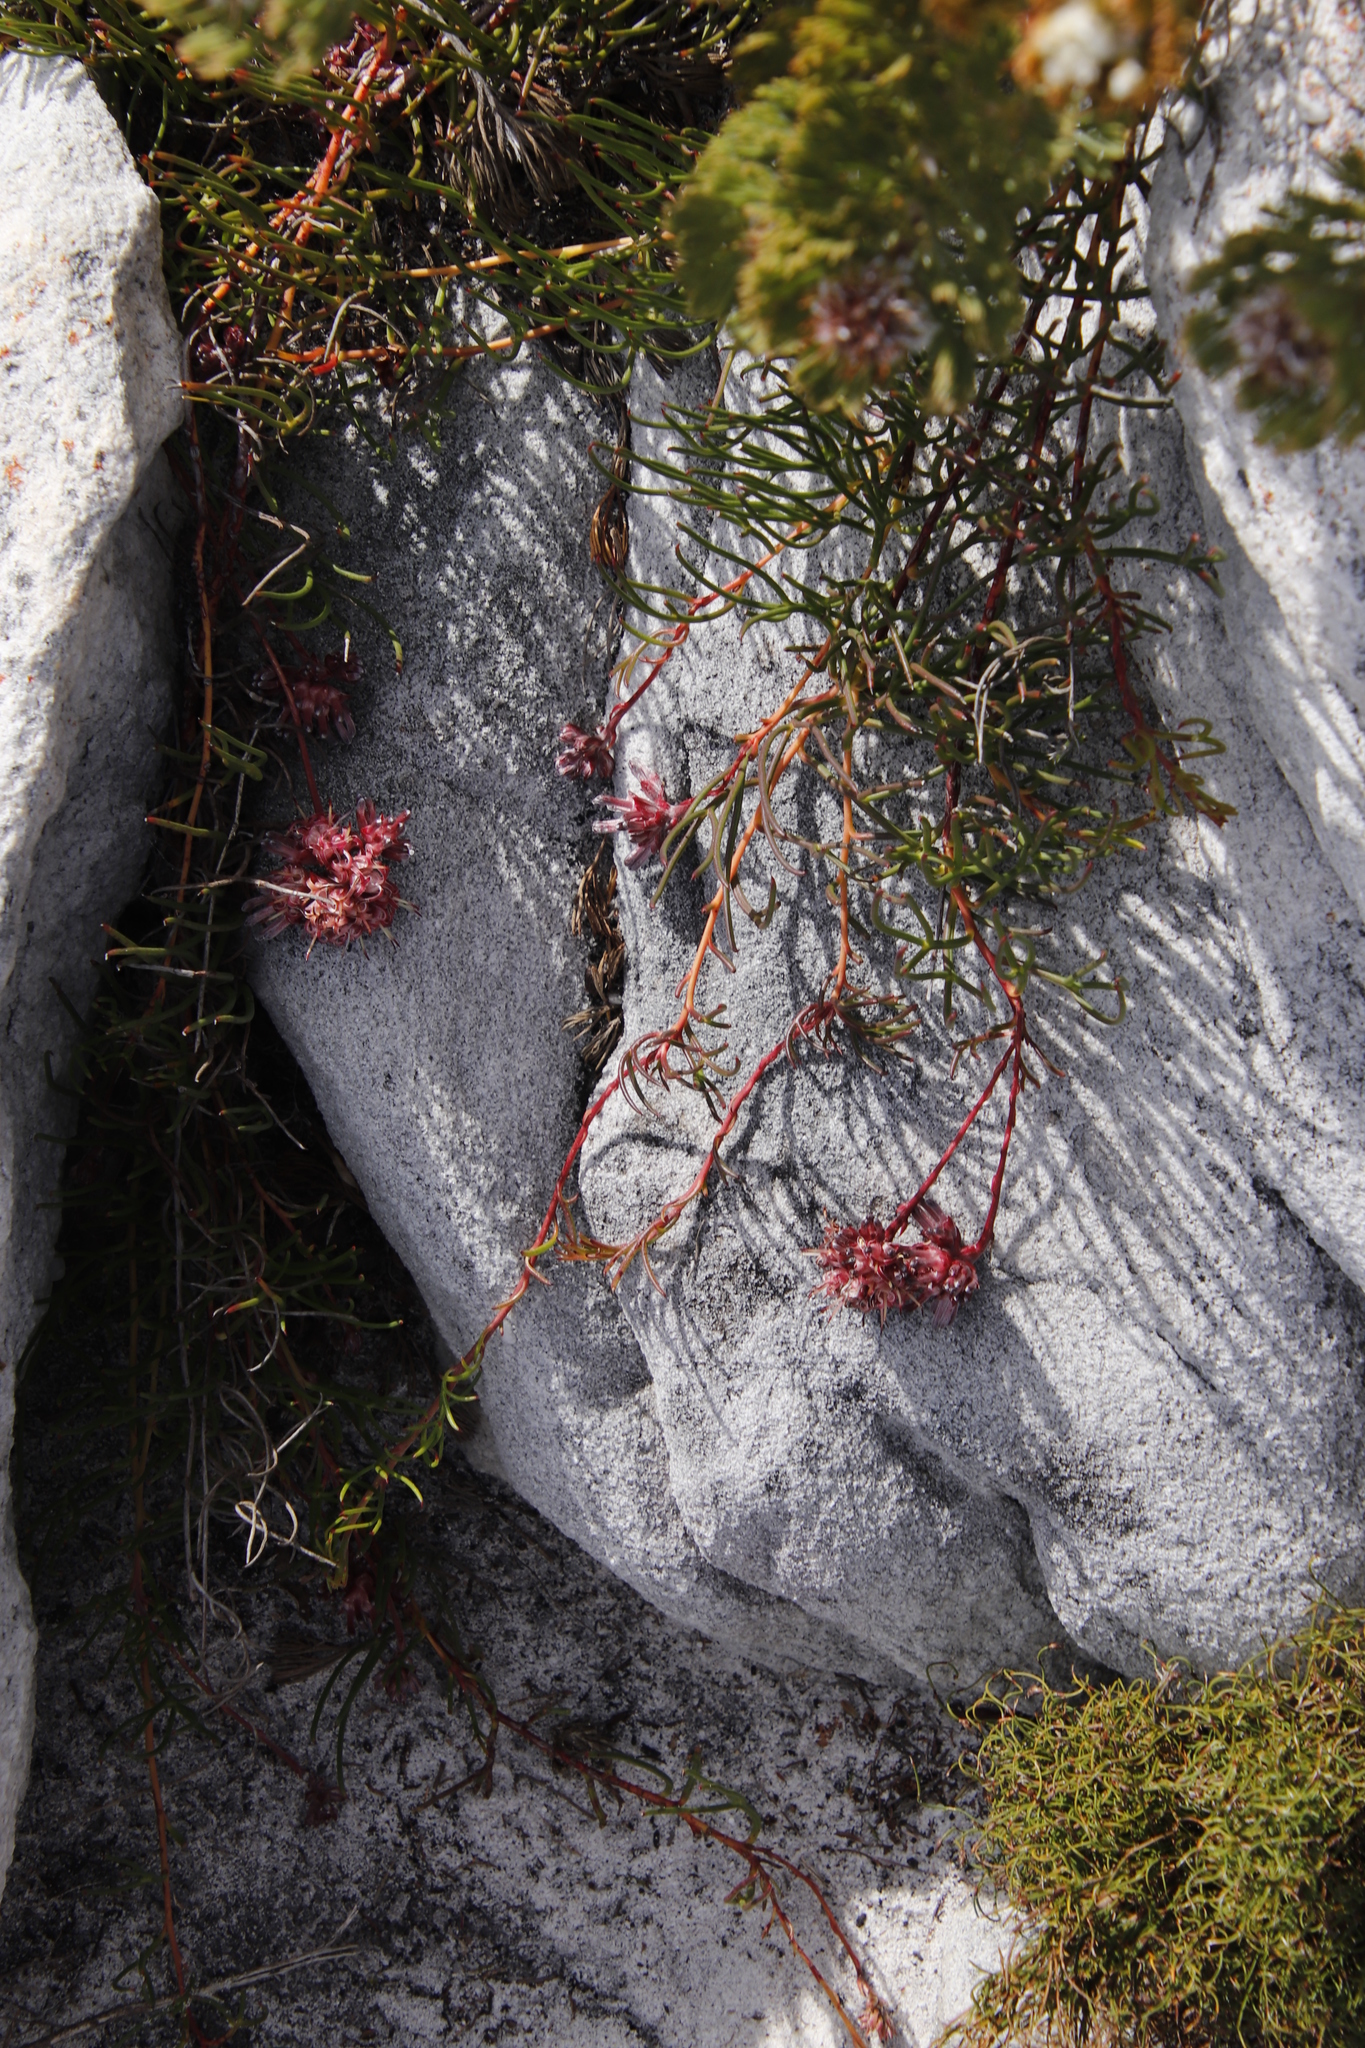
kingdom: Plantae
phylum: Tracheophyta
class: Magnoliopsida
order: Proteales
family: Proteaceae
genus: Serruria
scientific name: Serruria decumbens
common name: Peninsula spiderhead
